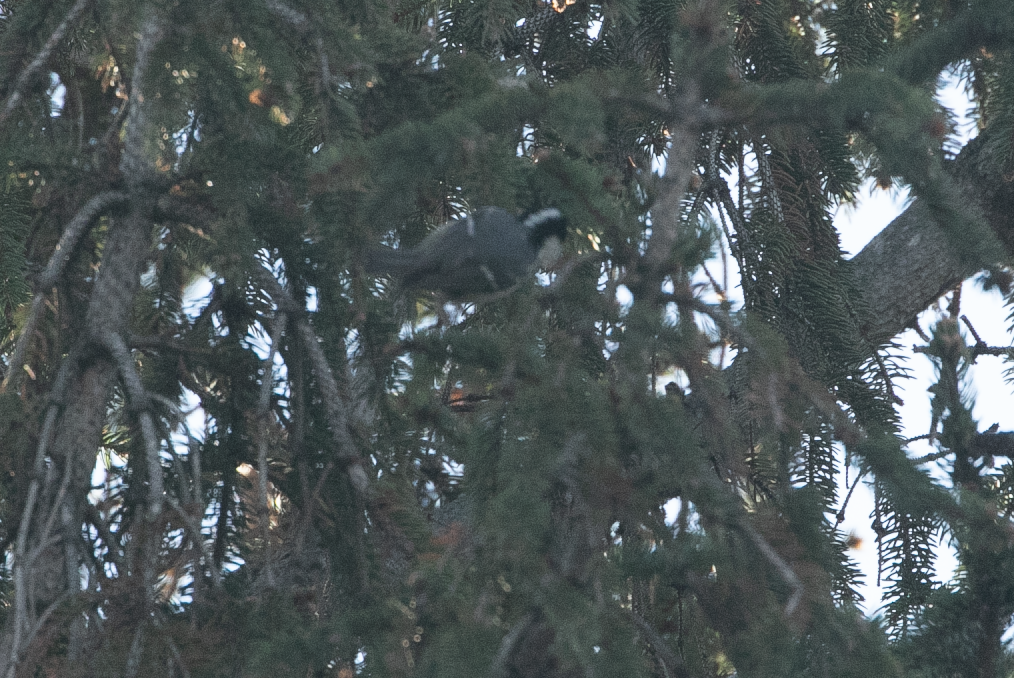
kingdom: Animalia
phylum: Chordata
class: Aves
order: Passeriformes
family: Paridae
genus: Periparus
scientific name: Periparus ater
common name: Coal tit
